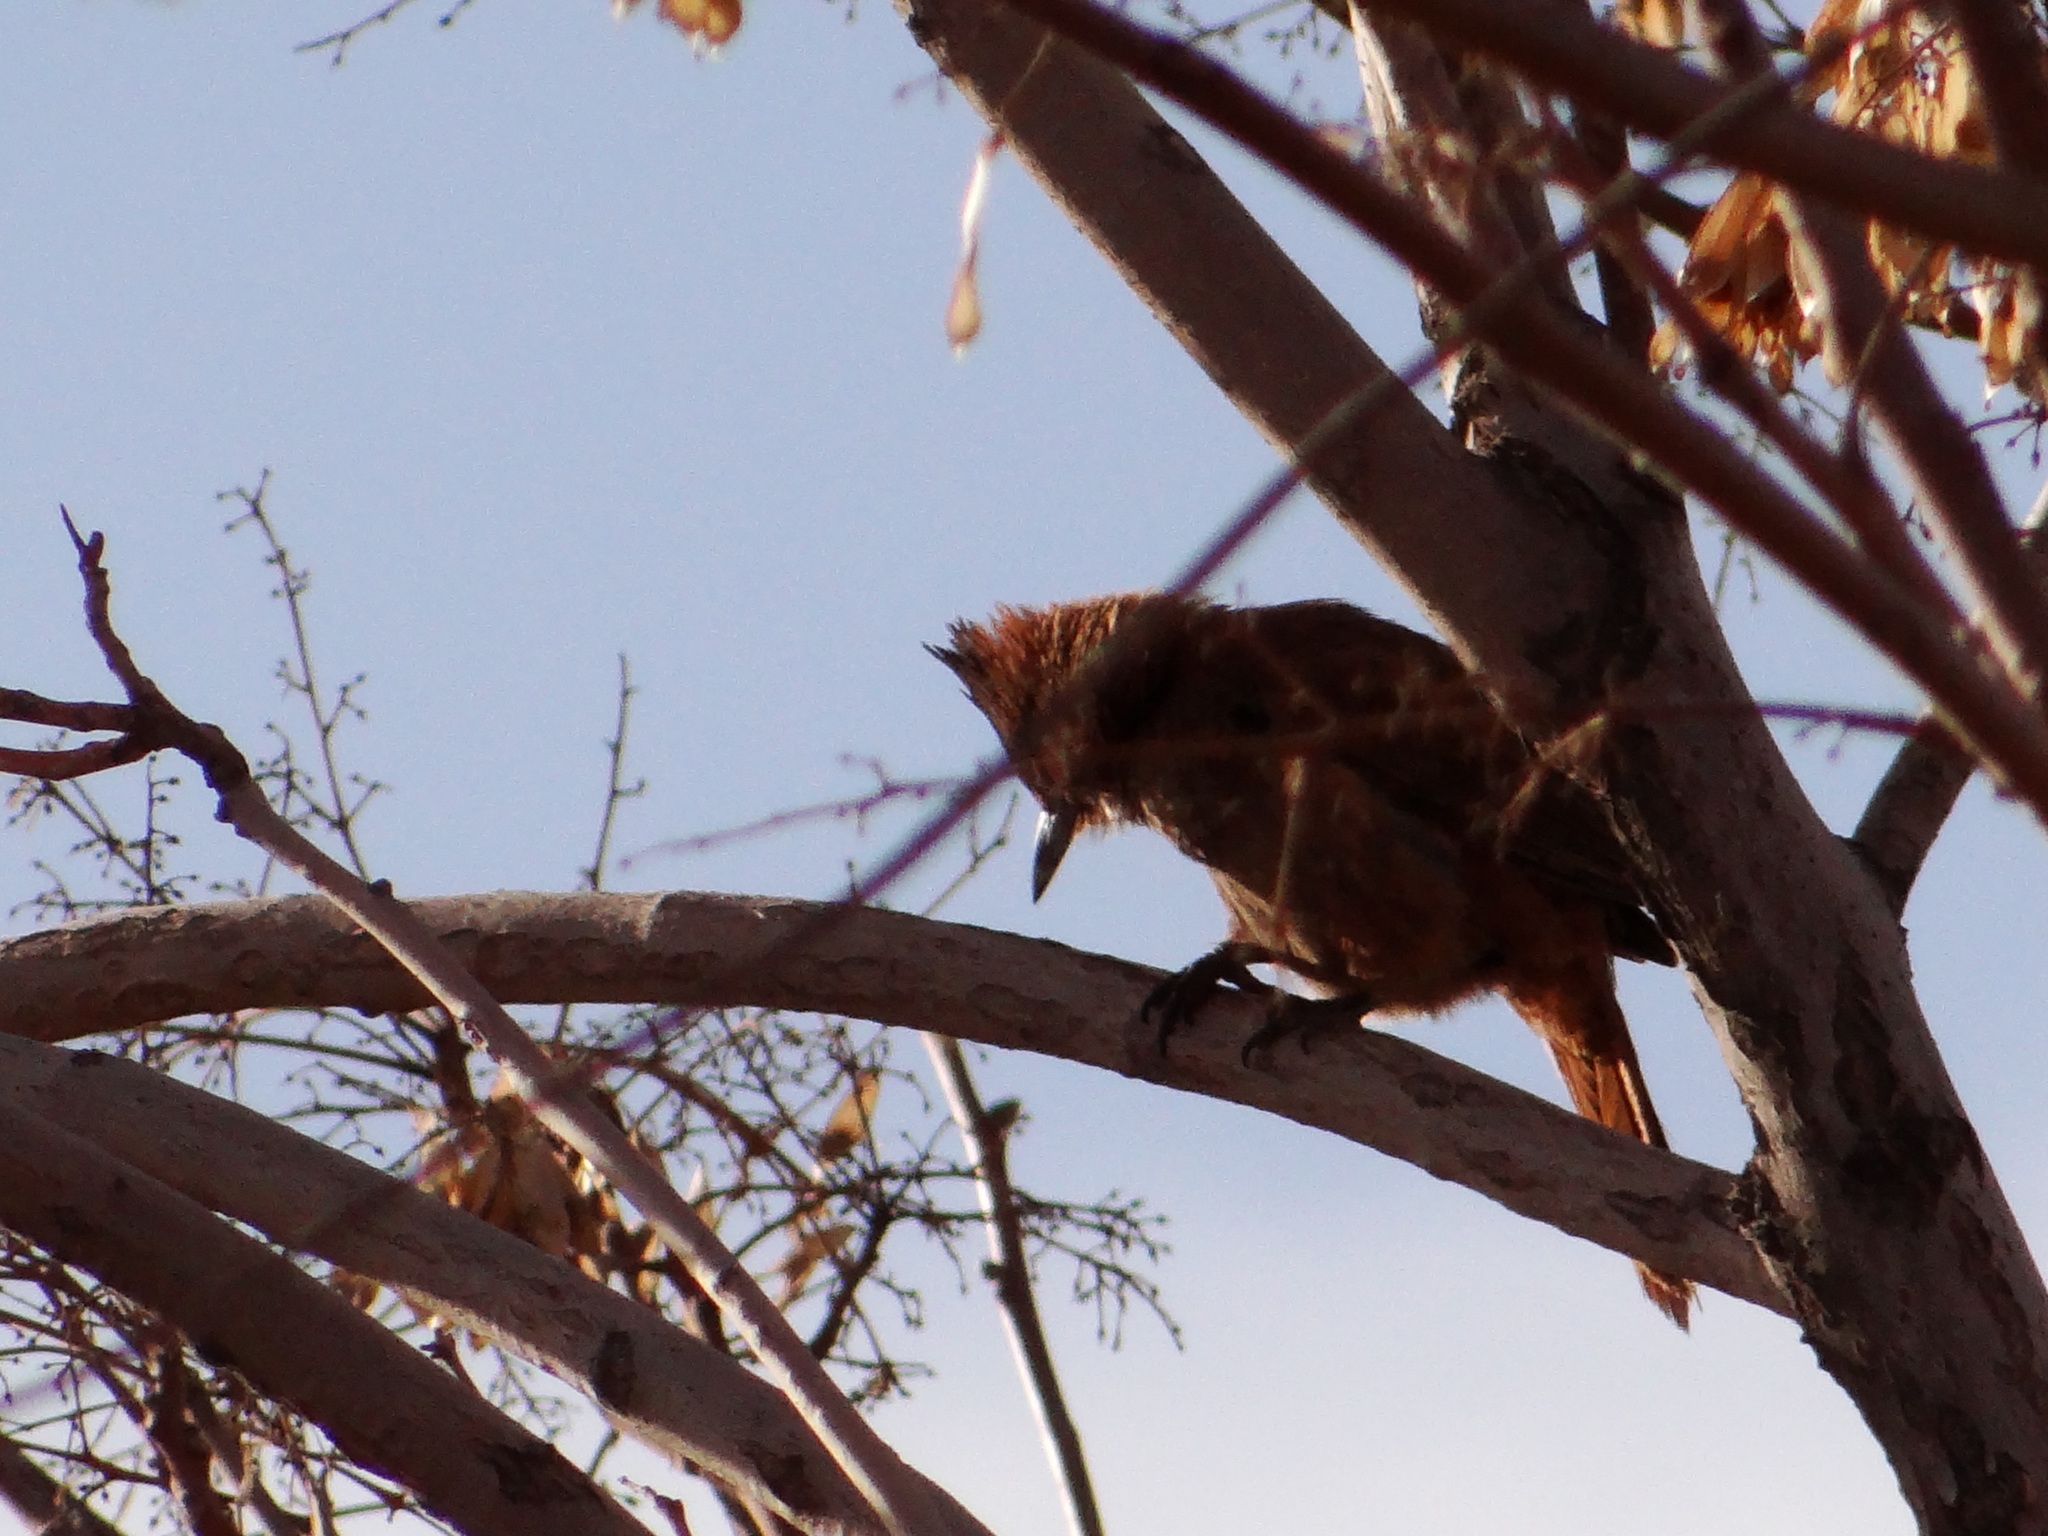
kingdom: Animalia
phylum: Chordata
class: Aves
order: Passeriformes
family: Furnariidae
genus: Pseudoseisura
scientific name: Pseudoseisura lophotes
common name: Brown cacholote
